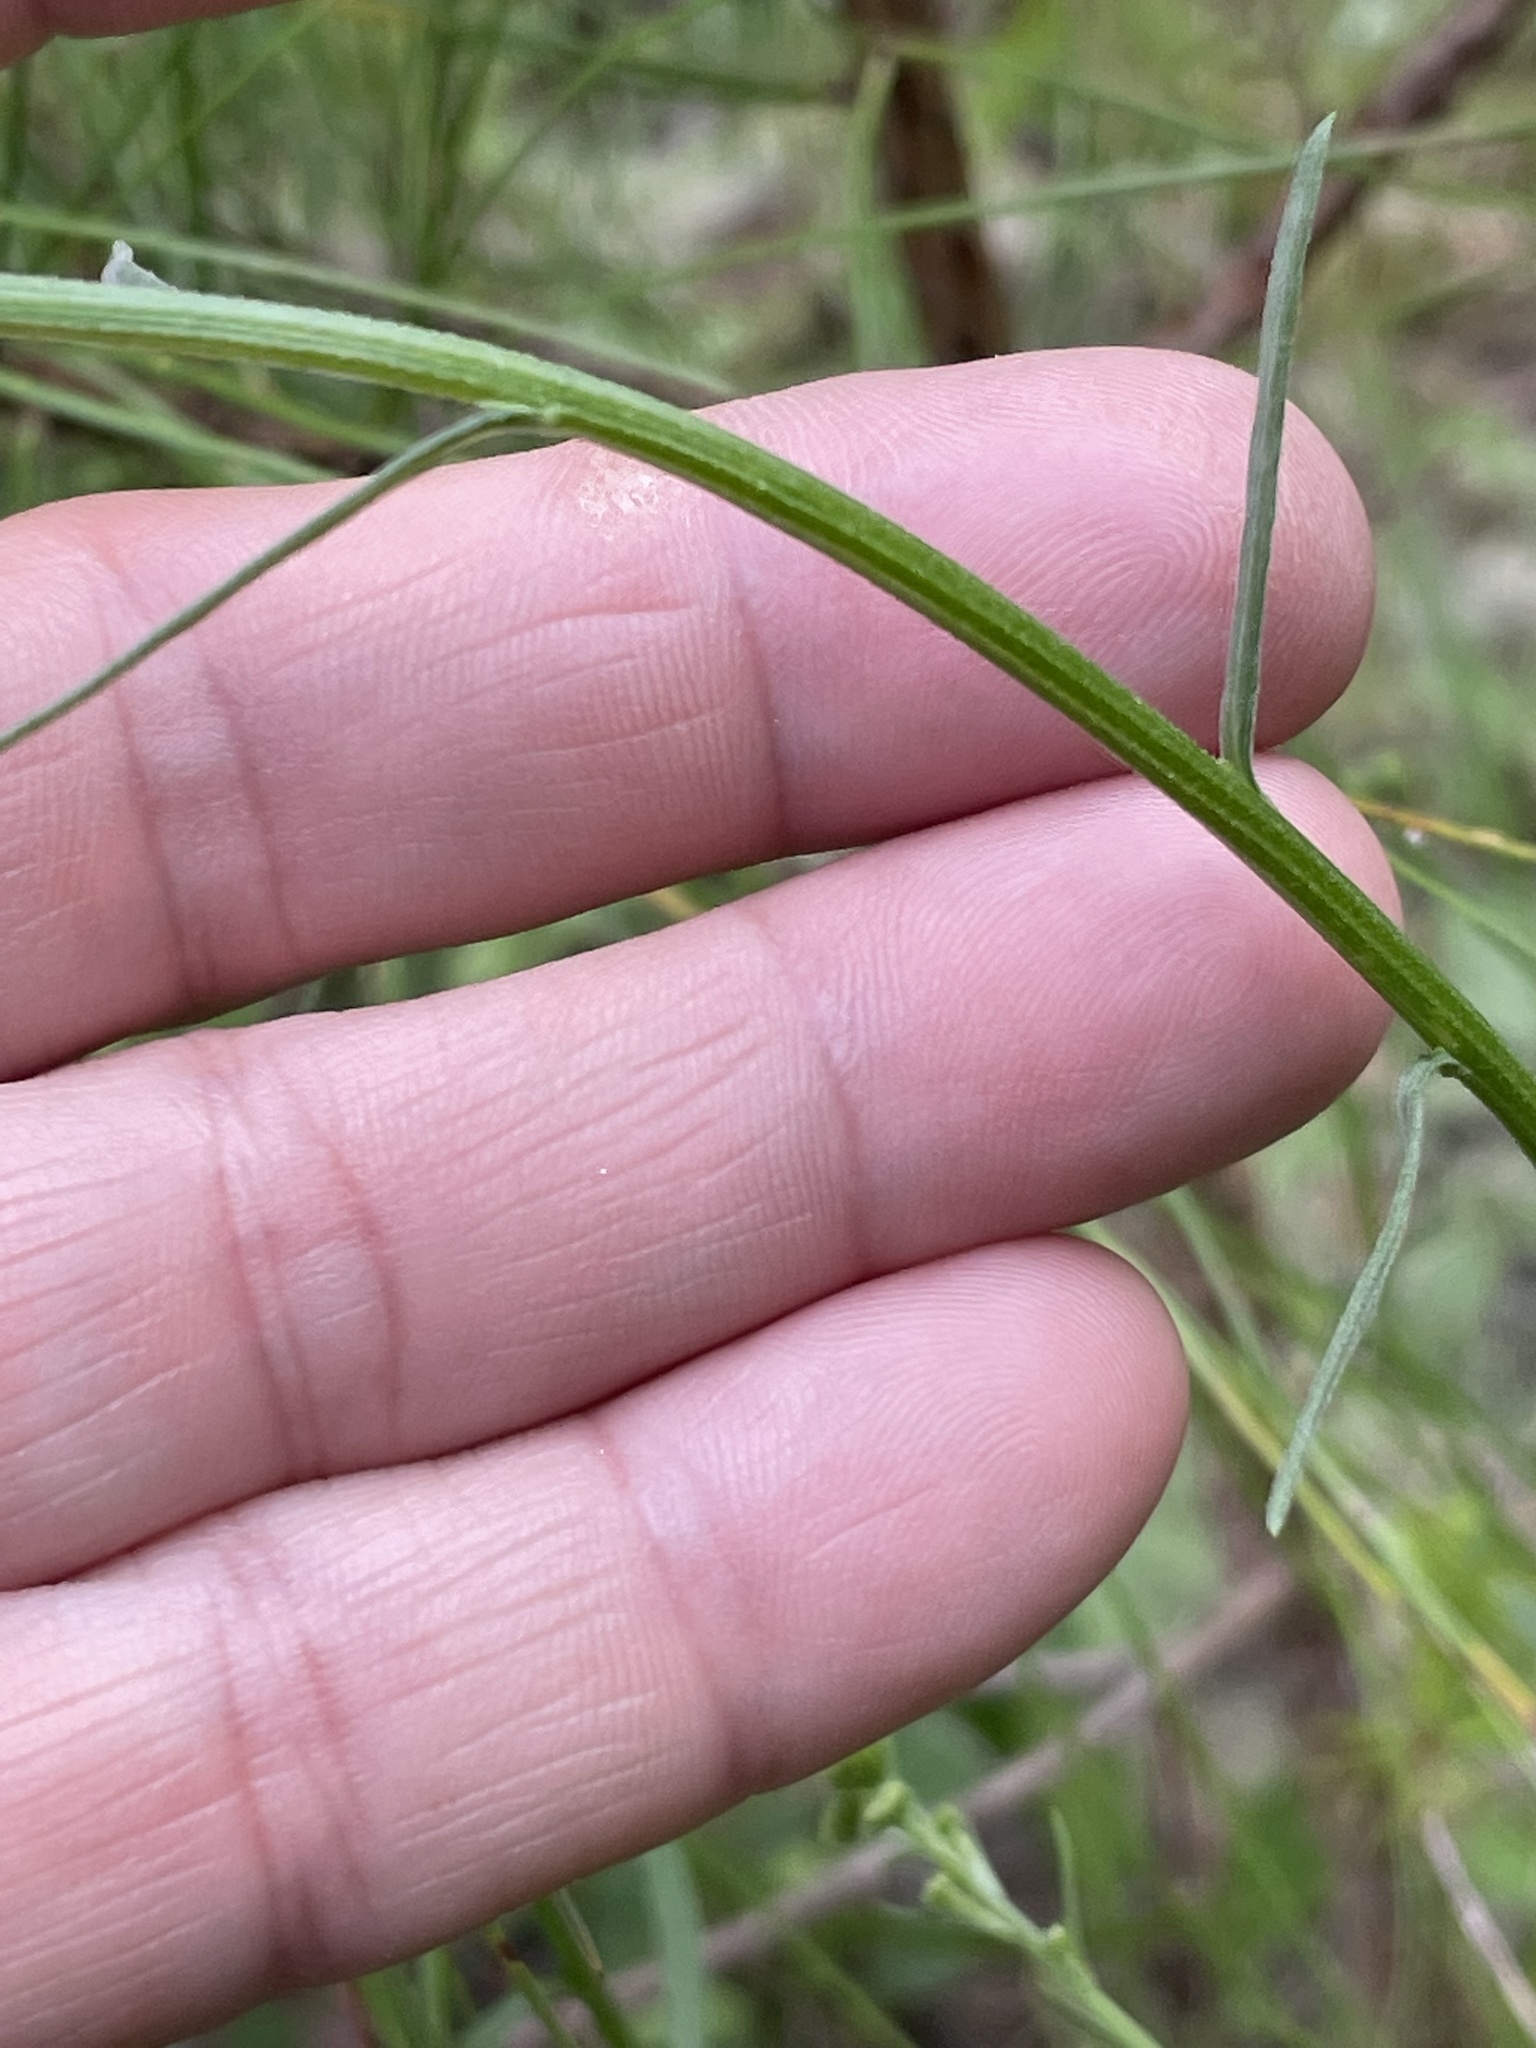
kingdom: Plantae
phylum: Tracheophyta
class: Magnoliopsida
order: Asterales
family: Asteraceae
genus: Erigeron
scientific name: Erigeron strigosus
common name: Common eastern fleabane
